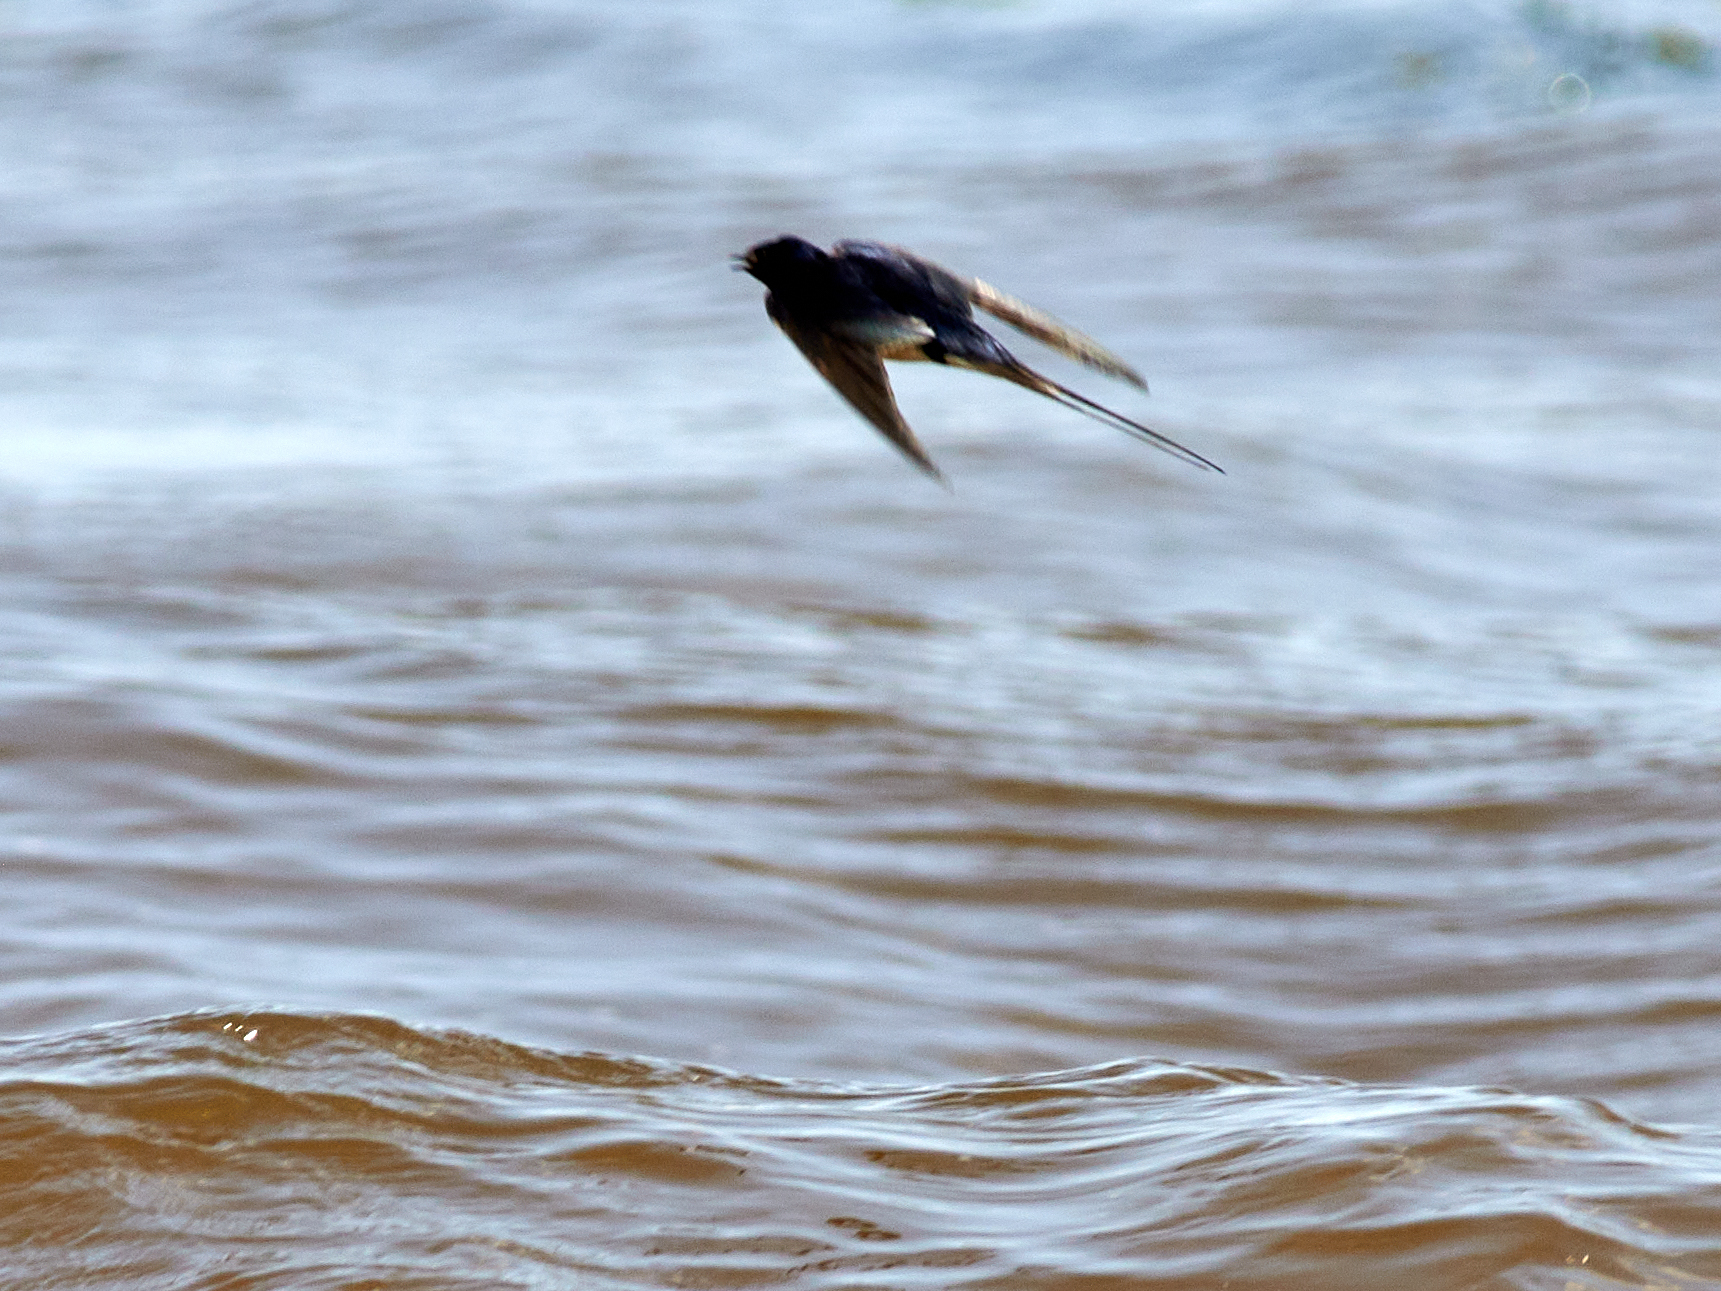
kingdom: Animalia
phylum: Chordata
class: Aves
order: Passeriformes
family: Hirundinidae
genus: Hirundo
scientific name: Hirundo rustica
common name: Barn swallow
